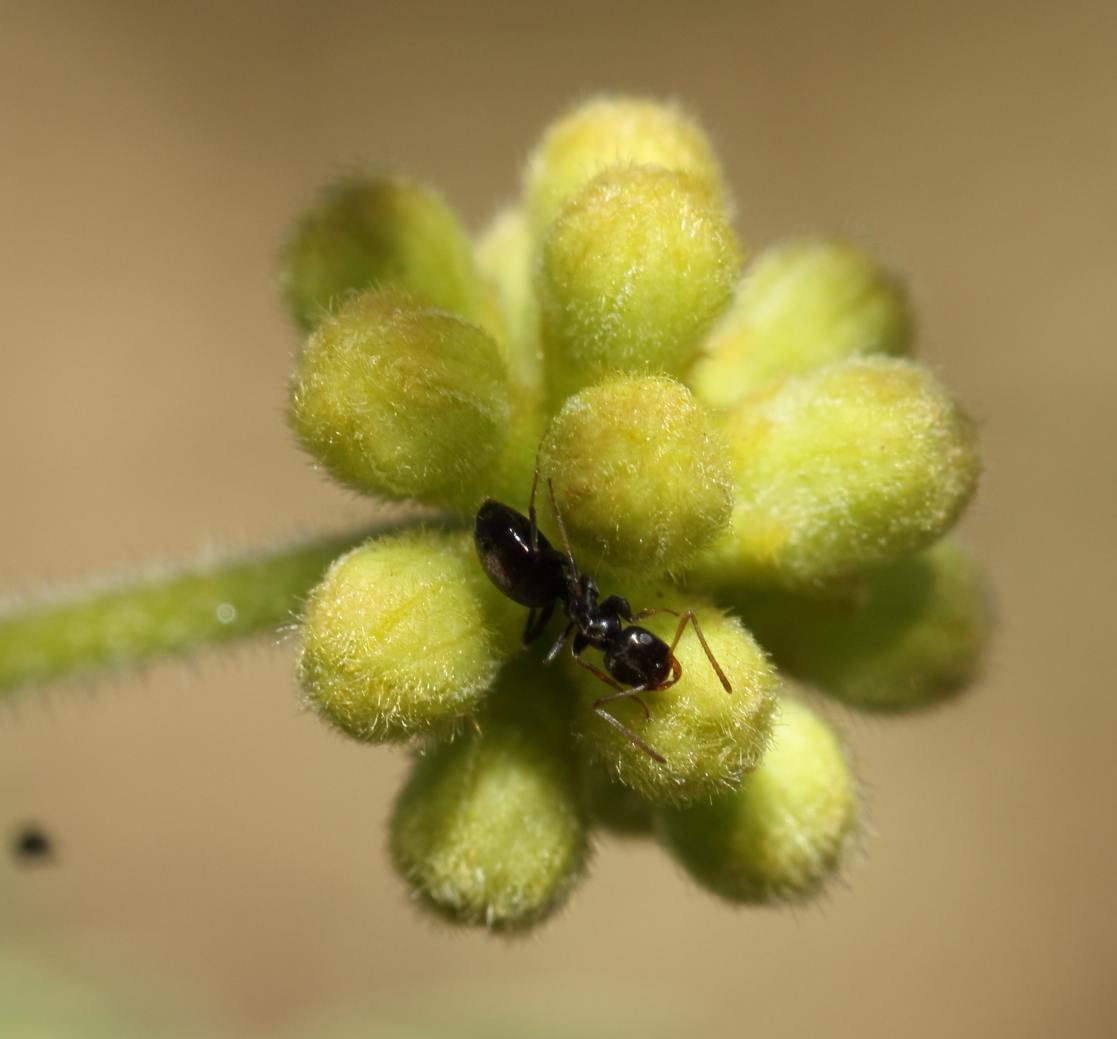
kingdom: Animalia
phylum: Arthropoda
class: Insecta
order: Hymenoptera
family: Formicidae
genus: Tapinoma
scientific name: Tapinoma pallipes
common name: Ant
